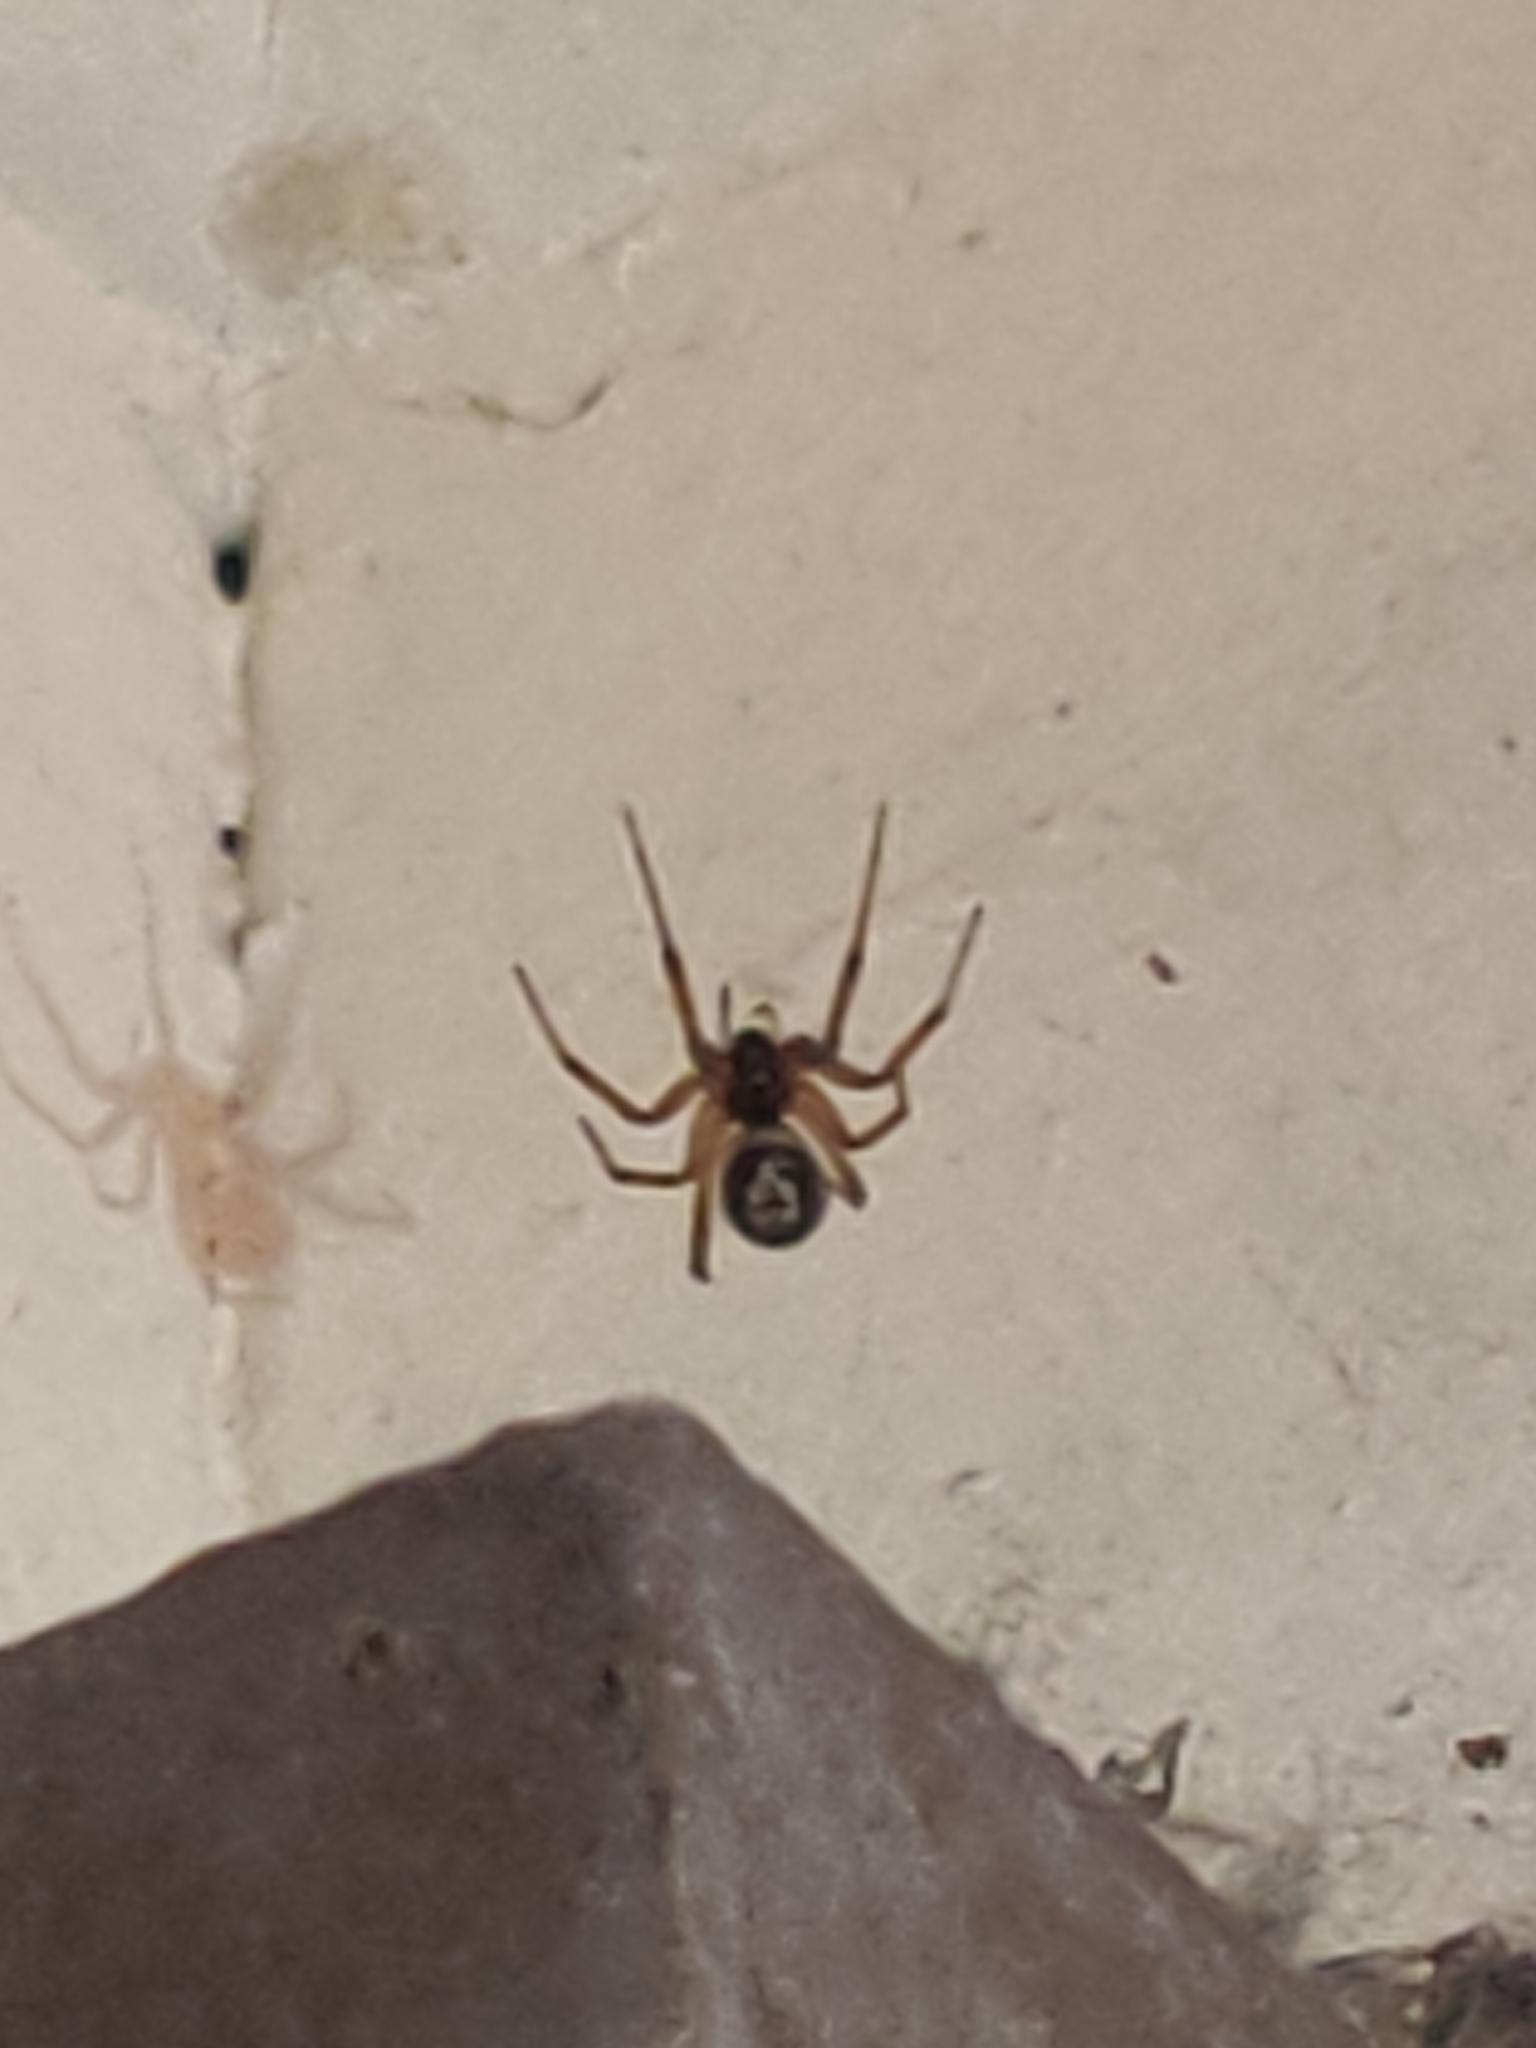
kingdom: Animalia
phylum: Arthropoda
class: Arachnida
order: Araneae
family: Theridiidae
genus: Steatoda
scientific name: Steatoda nobilis
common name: Cobweb weaver
